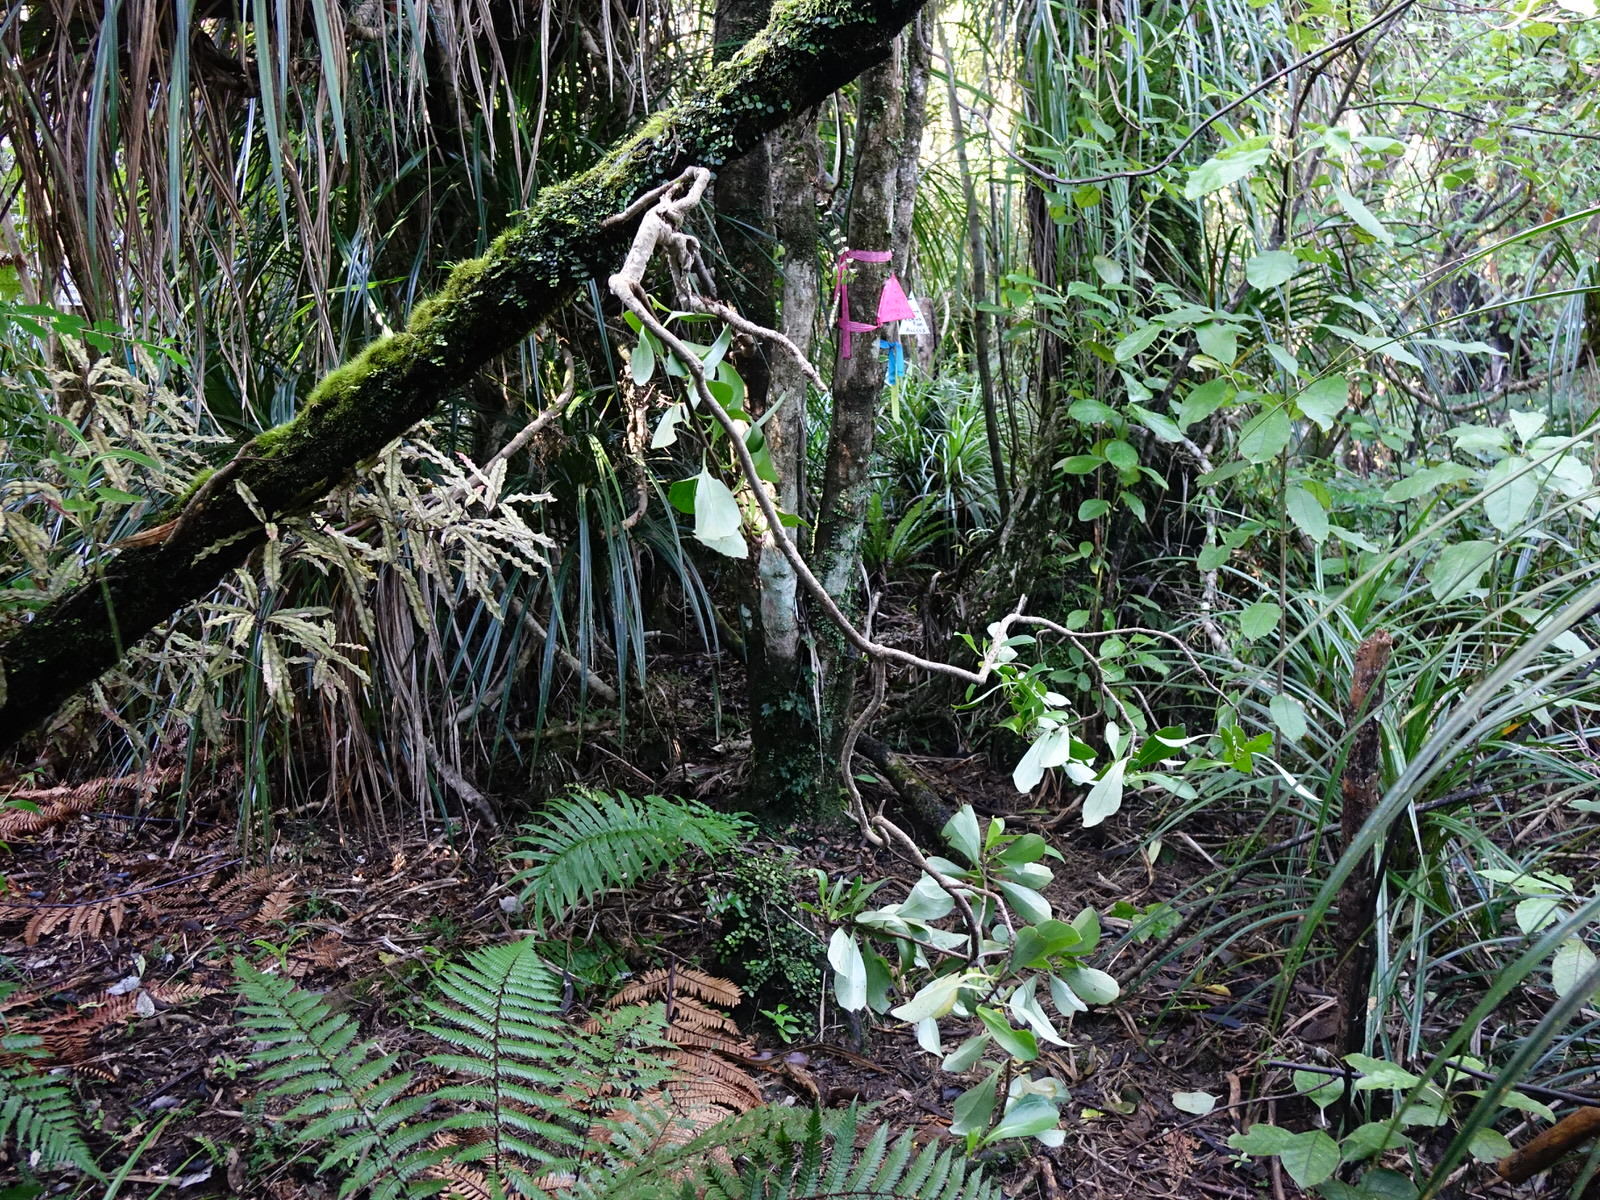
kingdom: Plantae
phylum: Tracheophyta
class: Magnoliopsida
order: Asterales
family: Asteraceae
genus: Brachyglottis
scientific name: Brachyglottis kirkii
